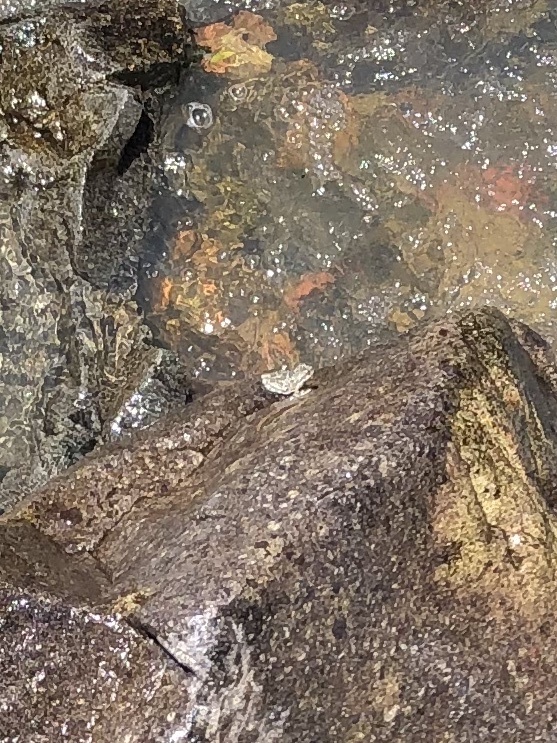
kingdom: Animalia
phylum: Chordata
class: Amphibia
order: Anura
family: Hylidae
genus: Pseudacris
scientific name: Pseudacris regilla
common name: Pacific chorus frog
